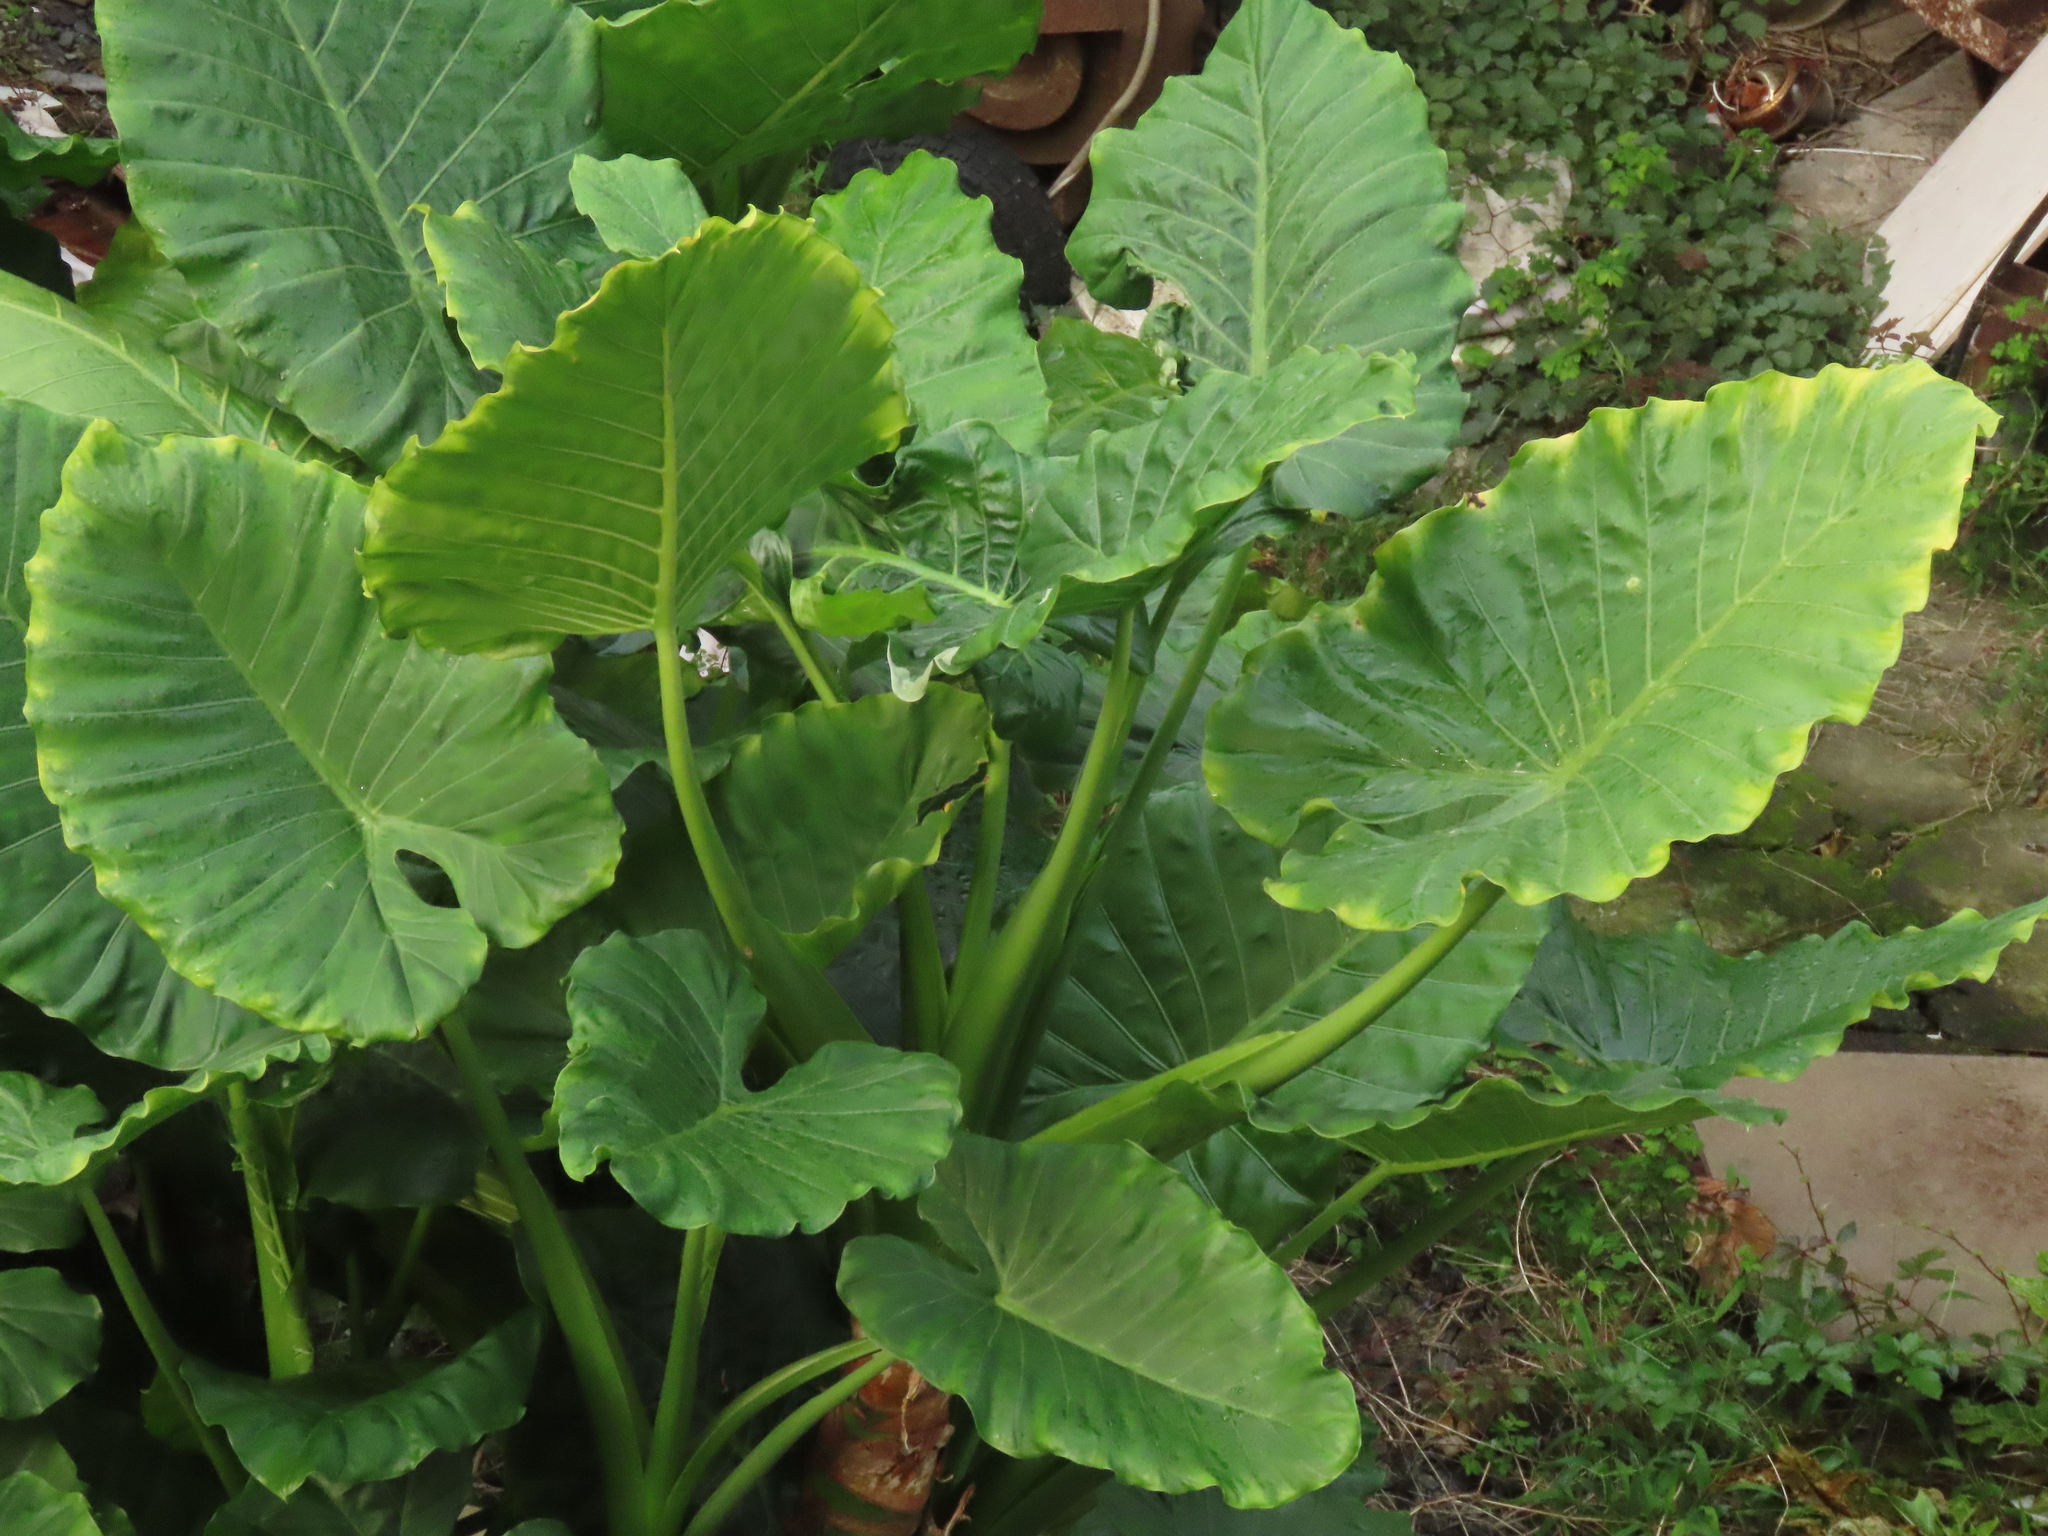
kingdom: Plantae
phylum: Tracheophyta
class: Liliopsida
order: Alismatales
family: Araceae
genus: Alocasia
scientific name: Alocasia odora
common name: Asian taro
